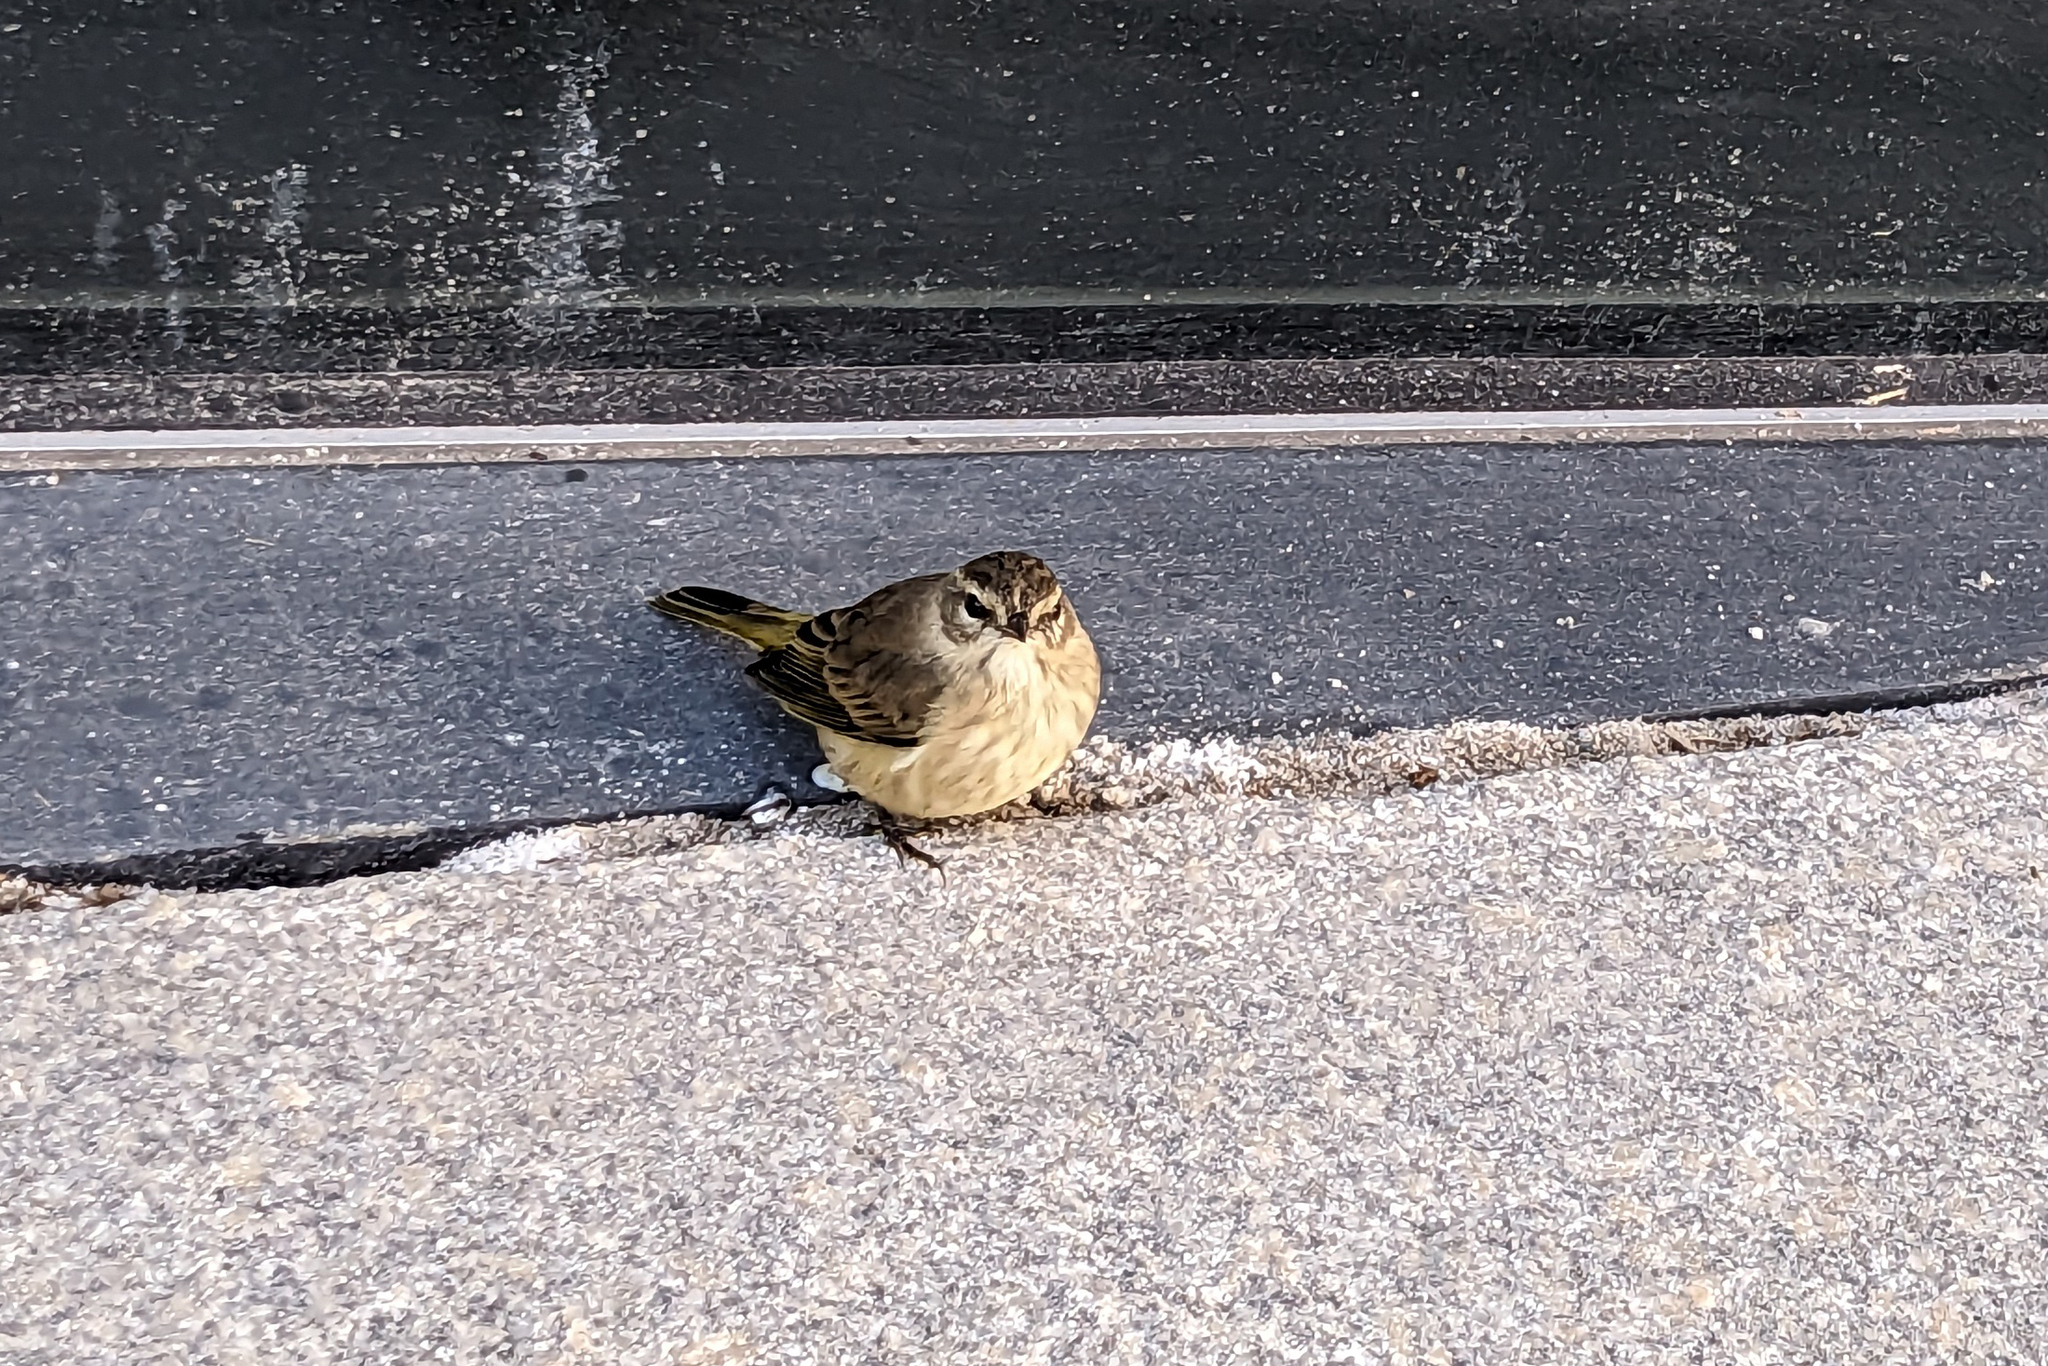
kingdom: Animalia
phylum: Chordata
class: Aves
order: Passeriformes
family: Parulidae
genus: Setophaga
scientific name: Setophaga palmarum
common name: Palm warbler
